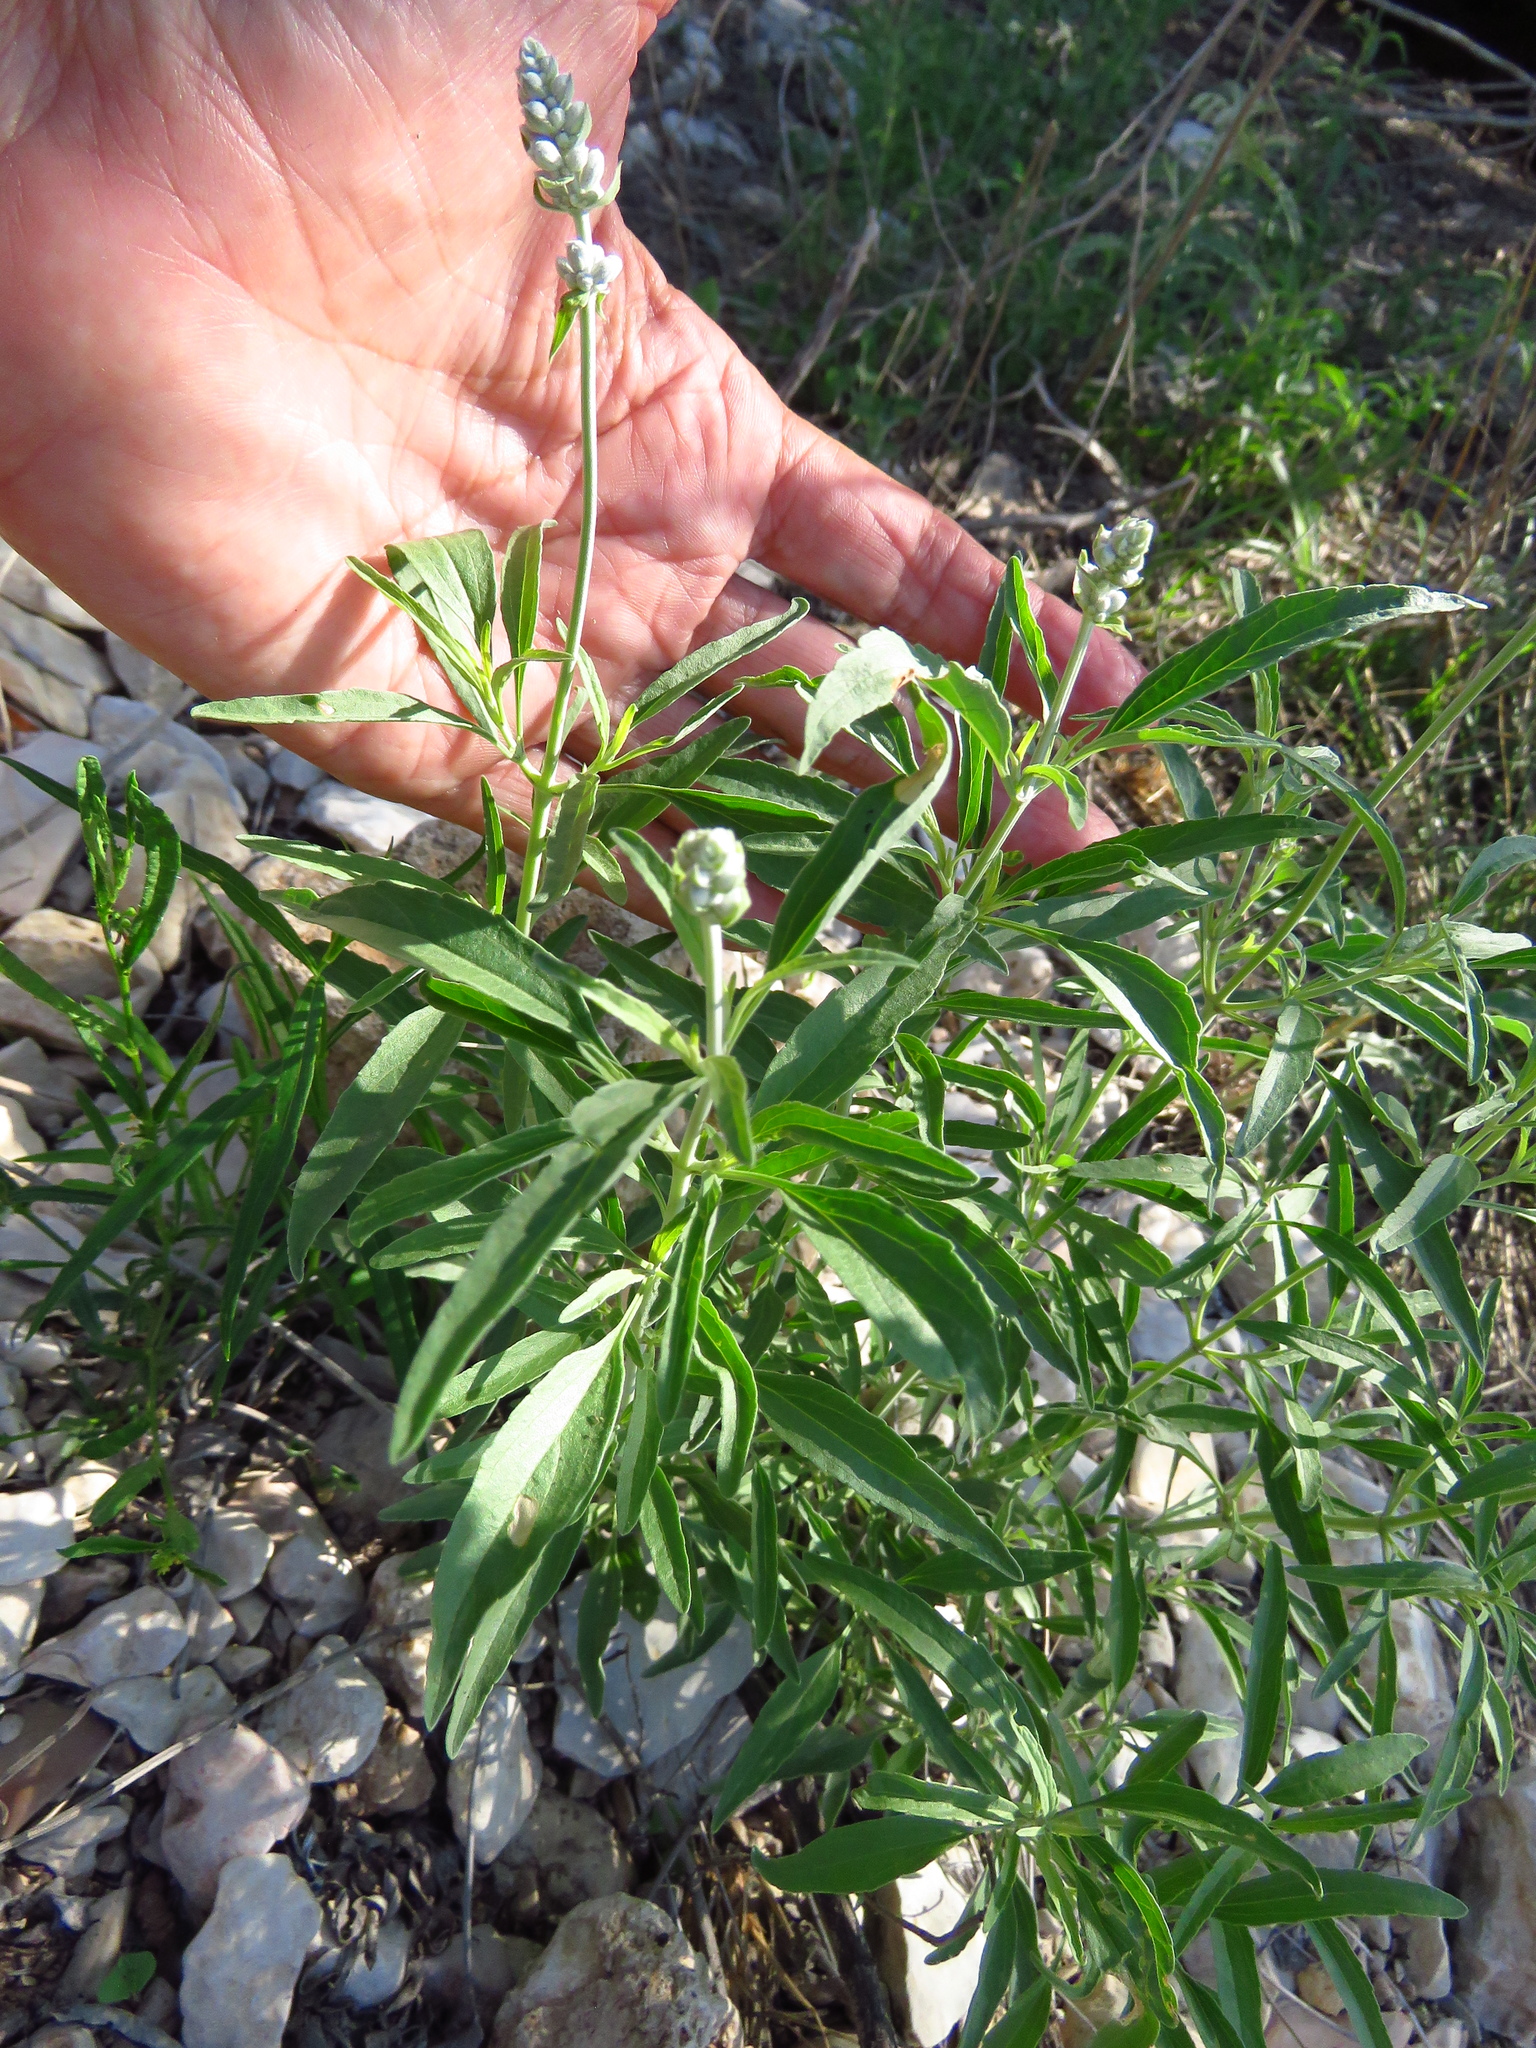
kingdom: Plantae
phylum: Tracheophyta
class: Magnoliopsida
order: Lamiales
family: Lamiaceae
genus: Salvia
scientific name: Salvia farinacea
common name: Mealy sage
